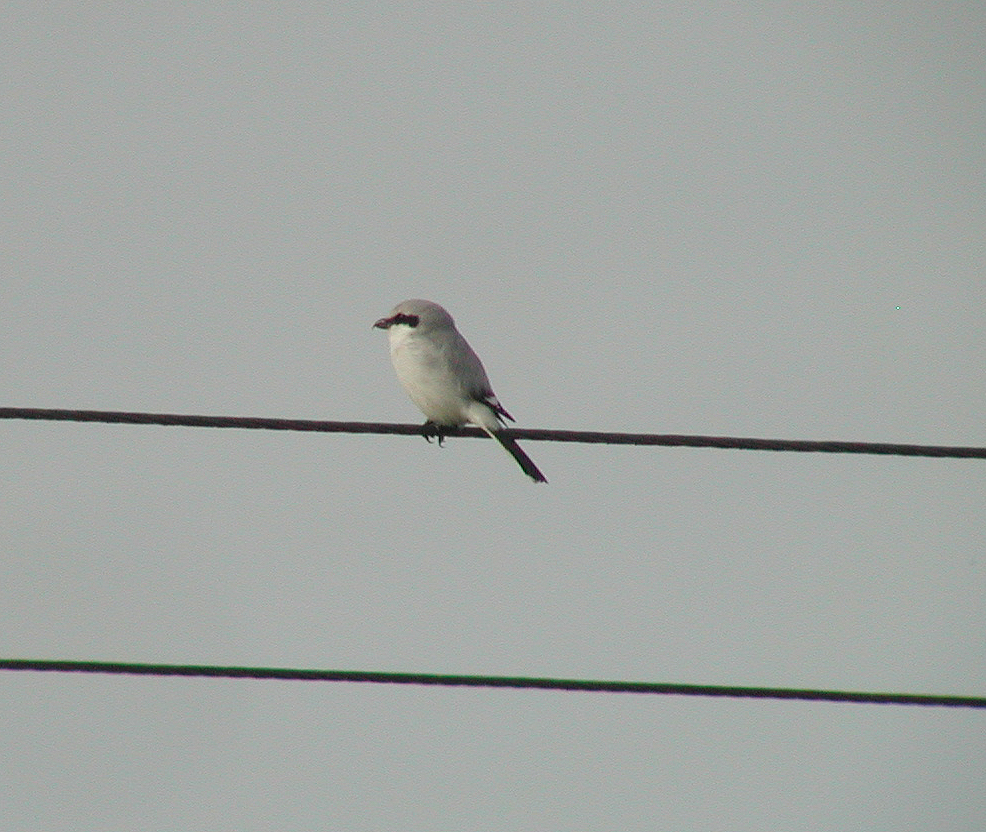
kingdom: Animalia
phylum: Chordata
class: Aves
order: Passeriformes
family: Laniidae
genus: Lanius
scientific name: Lanius excubitor
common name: Great grey shrike
